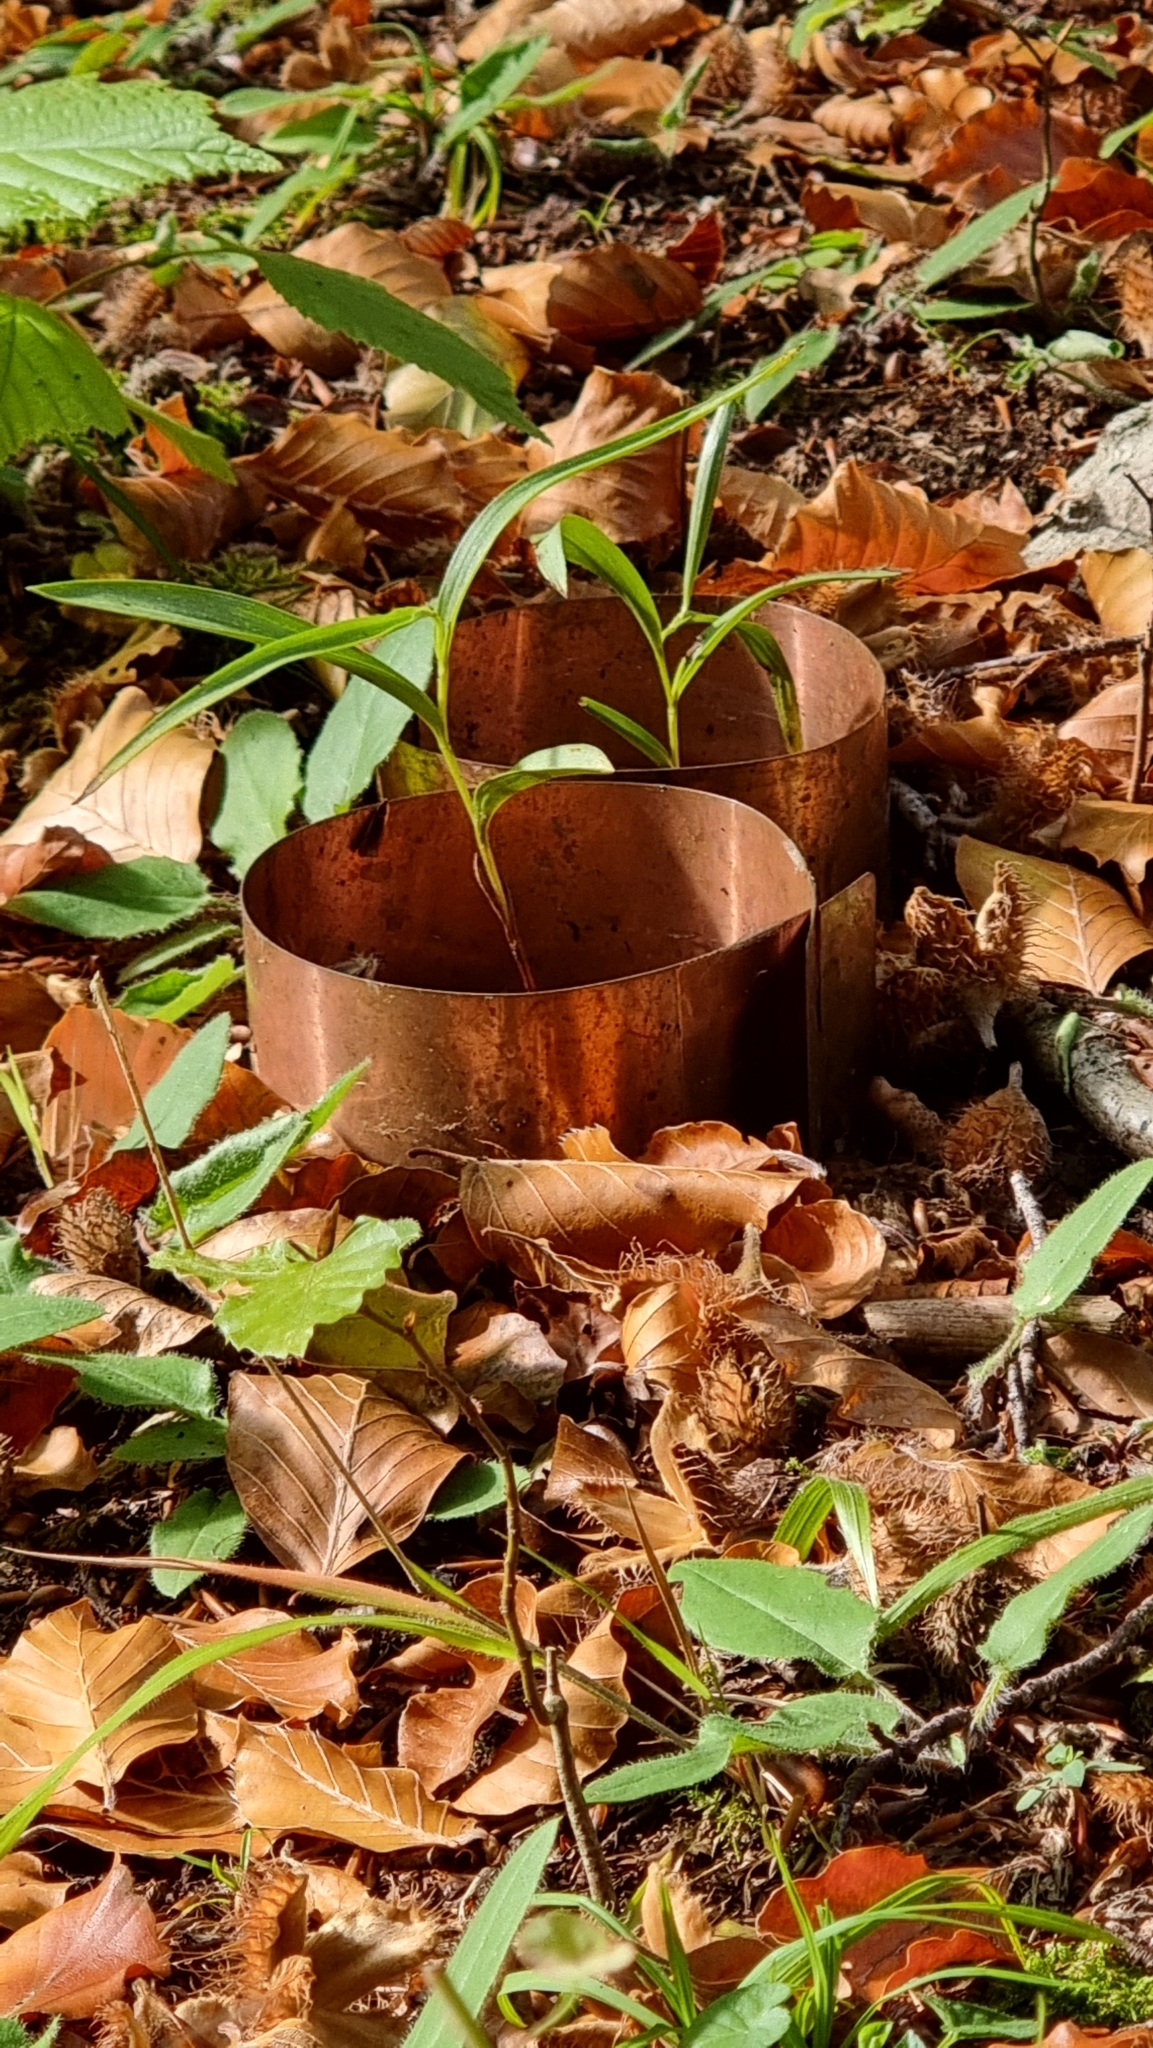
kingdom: Plantae
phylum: Tracheophyta
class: Liliopsida
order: Asparagales
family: Orchidaceae
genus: Cephalanthera
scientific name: Cephalanthera rubra
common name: Red helleborine
